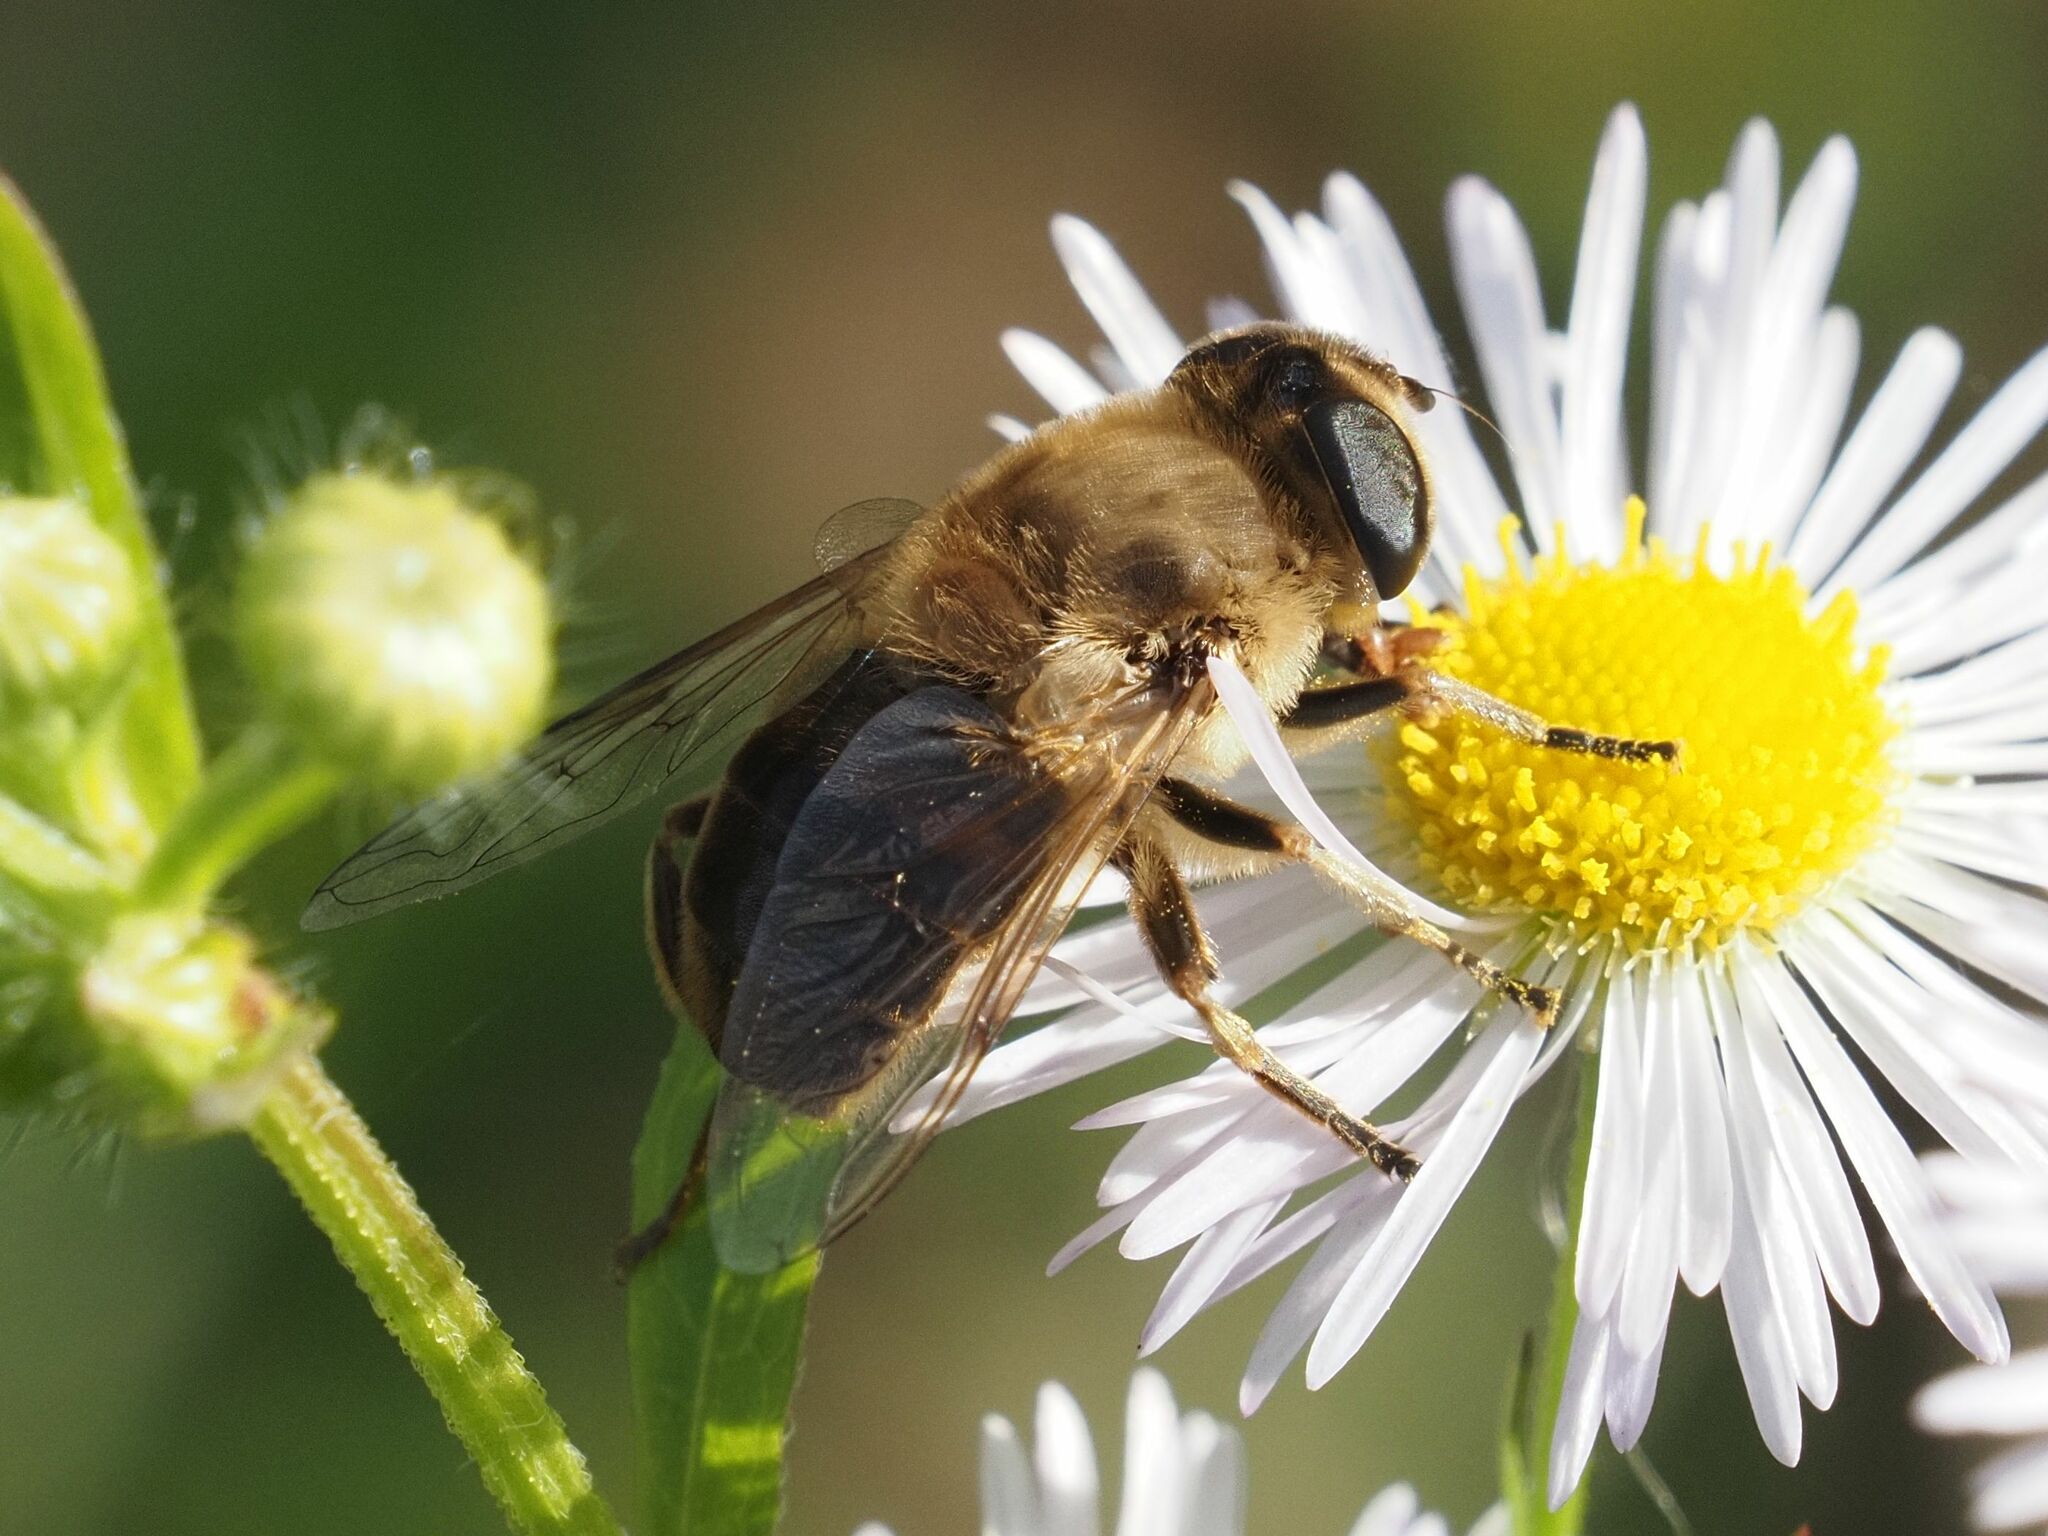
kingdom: Animalia
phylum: Arthropoda
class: Insecta
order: Diptera
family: Syrphidae
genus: Eristalis
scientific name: Eristalis tenax
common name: Drone fly
